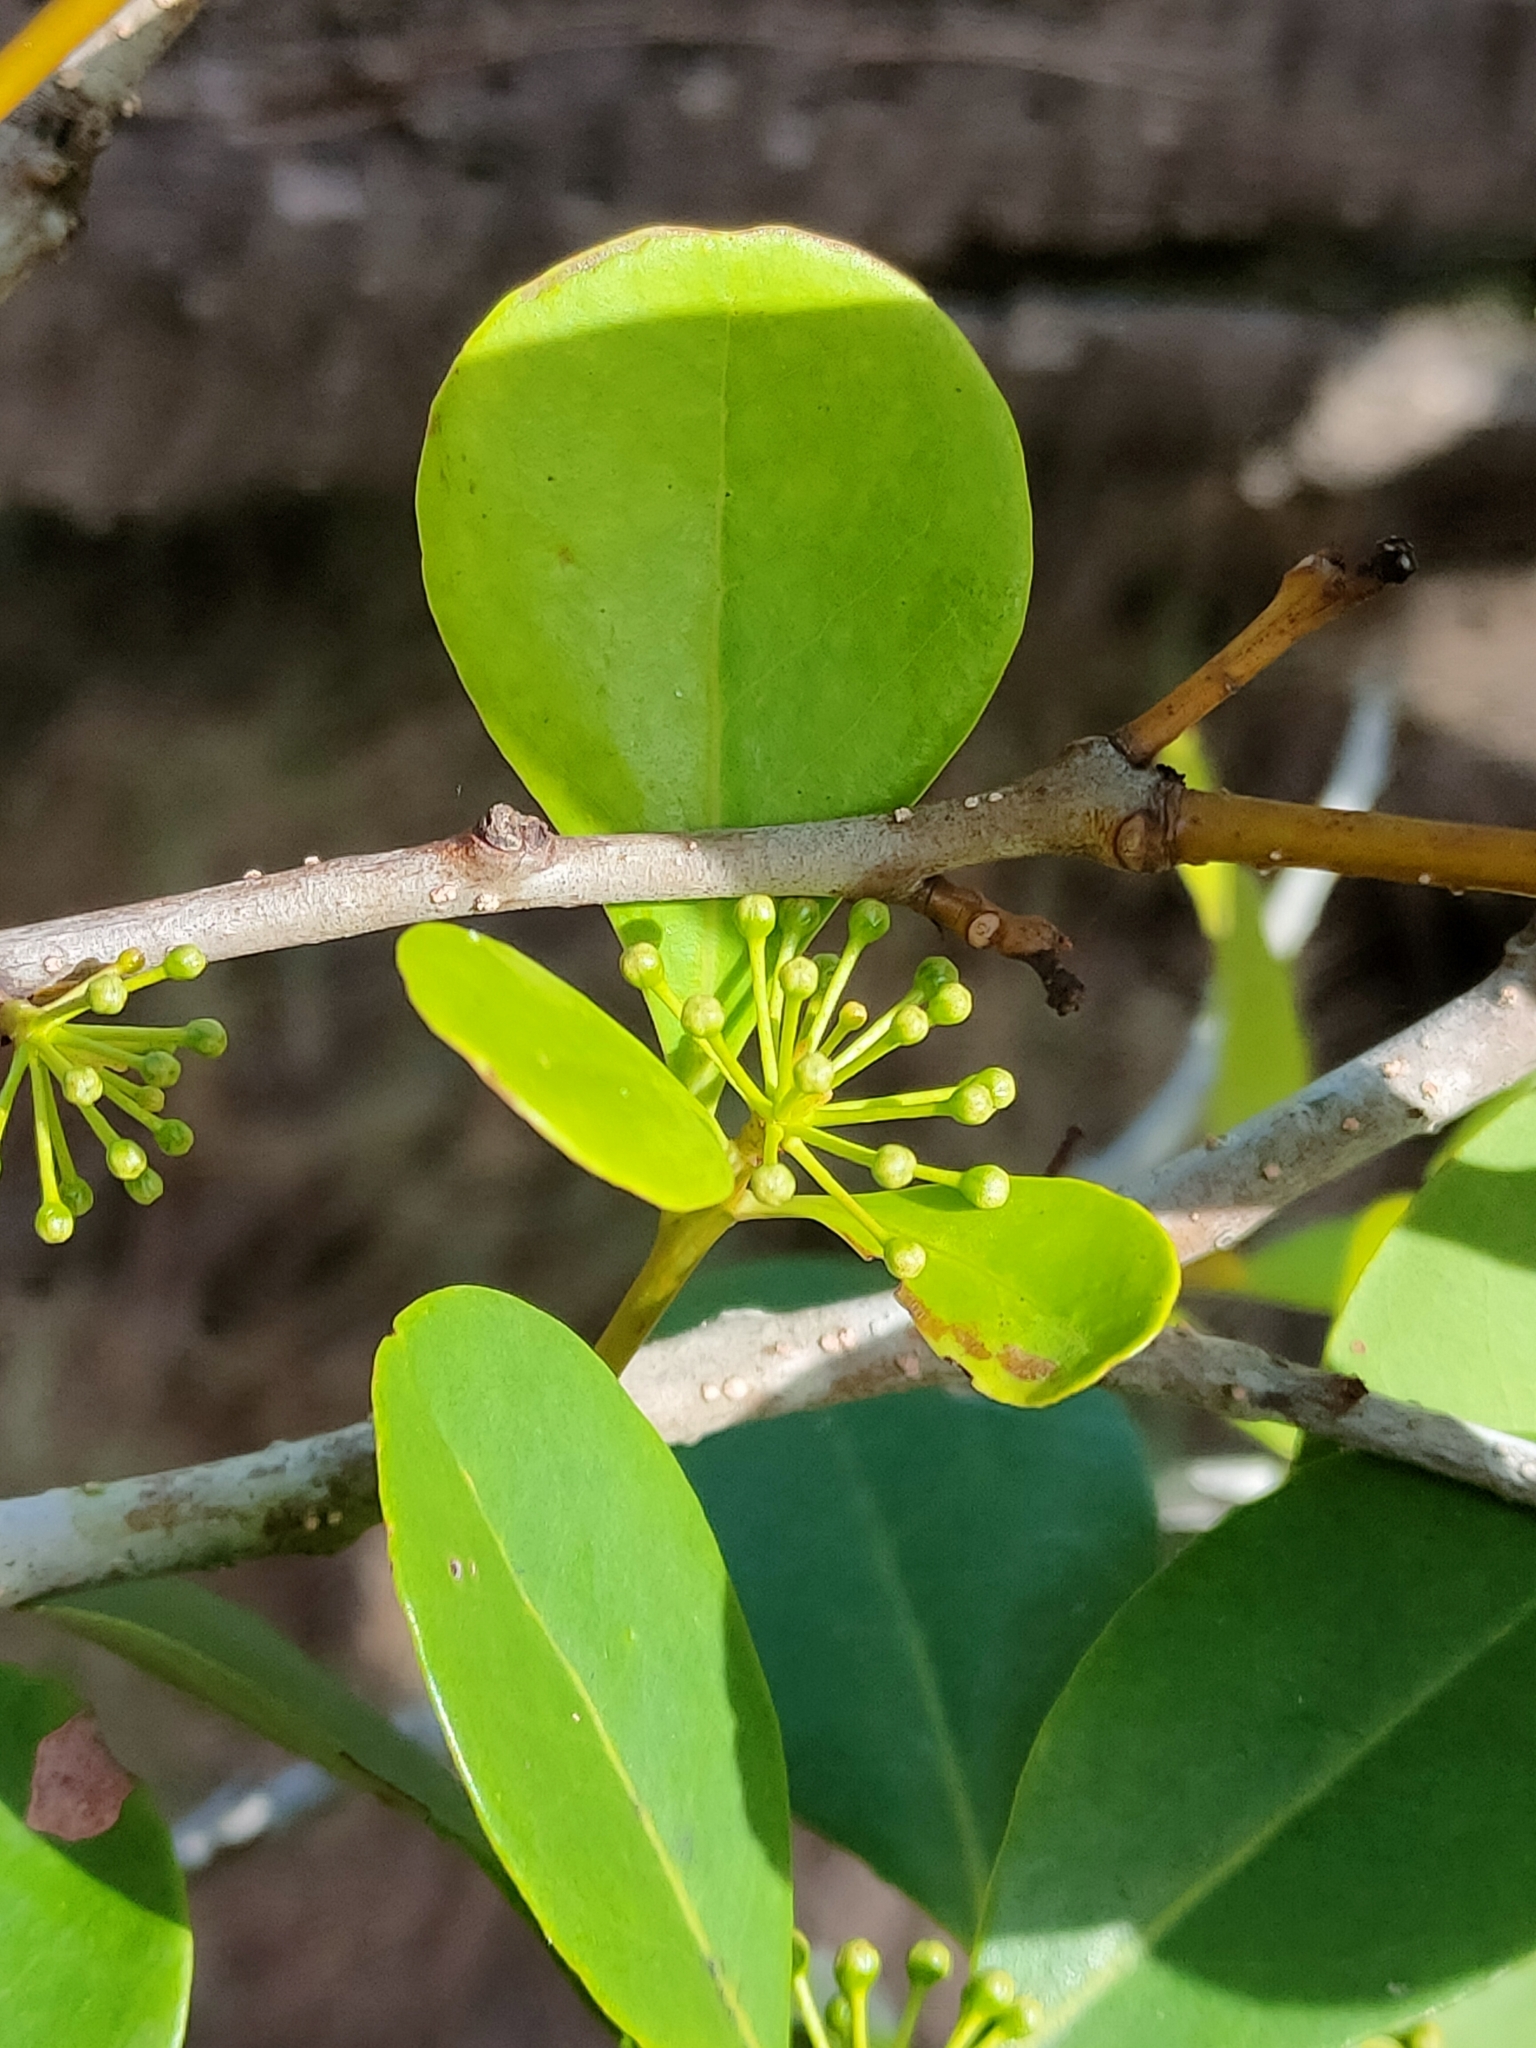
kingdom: Plantae
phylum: Tracheophyta
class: Magnoliopsida
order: Ericales
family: Primulaceae
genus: Aegiceras
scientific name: Aegiceras corniculatum
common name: River mangrove
